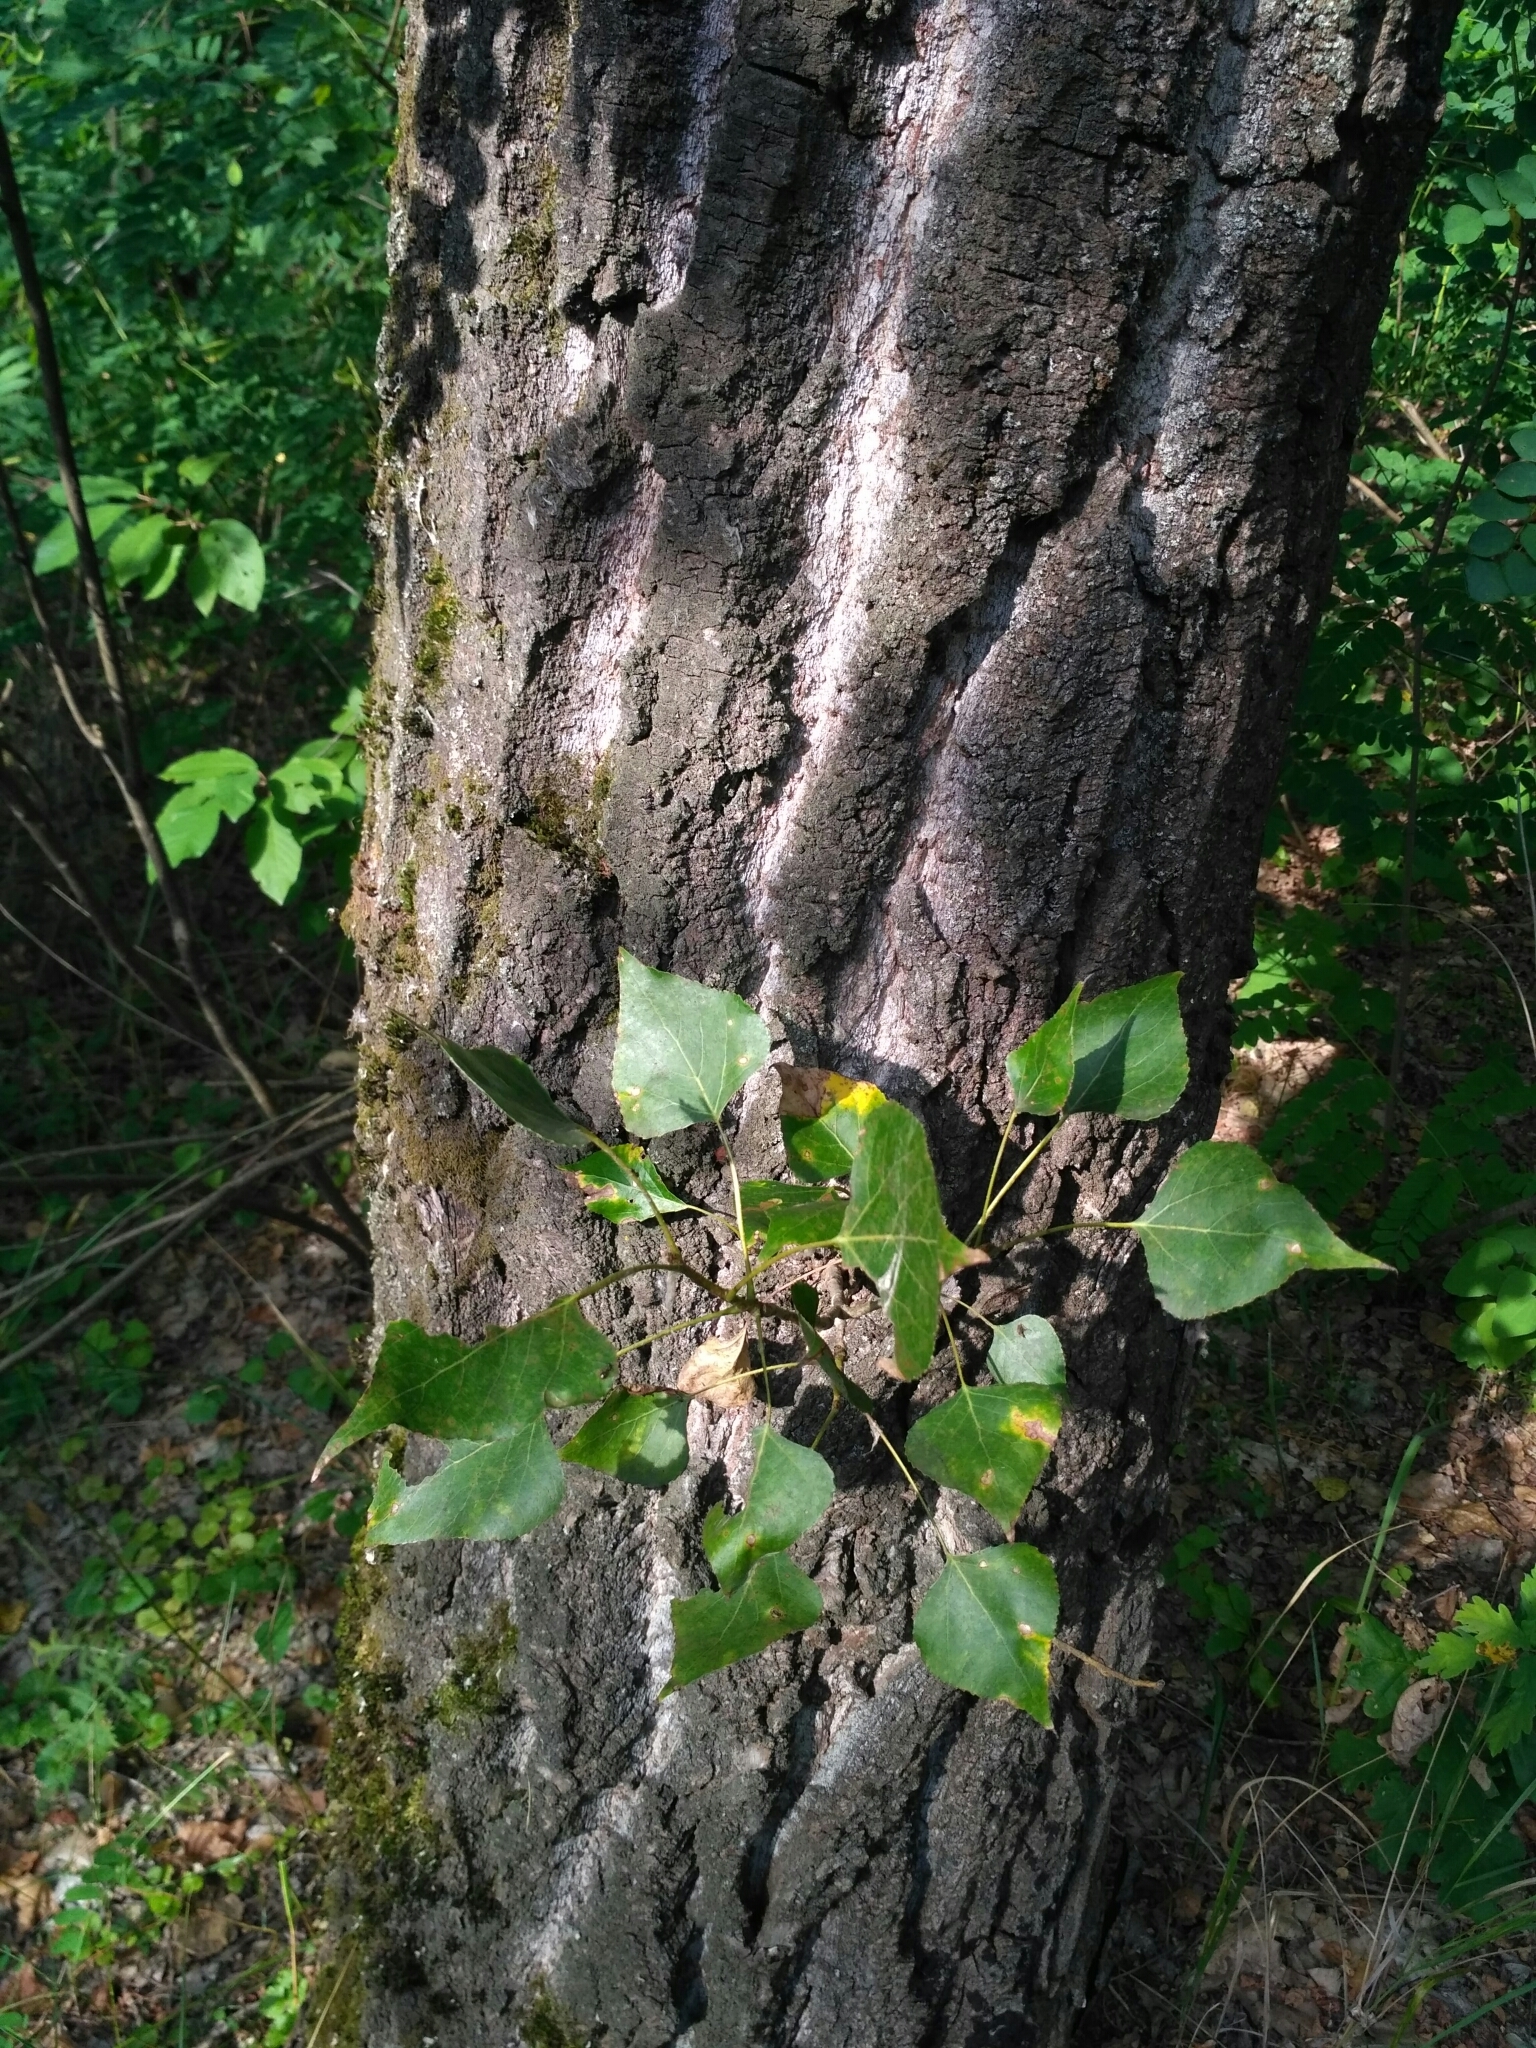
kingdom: Plantae
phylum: Tracheophyta
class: Magnoliopsida
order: Malpighiales
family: Salicaceae
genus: Populus
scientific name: Populus nigra
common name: Black poplar
